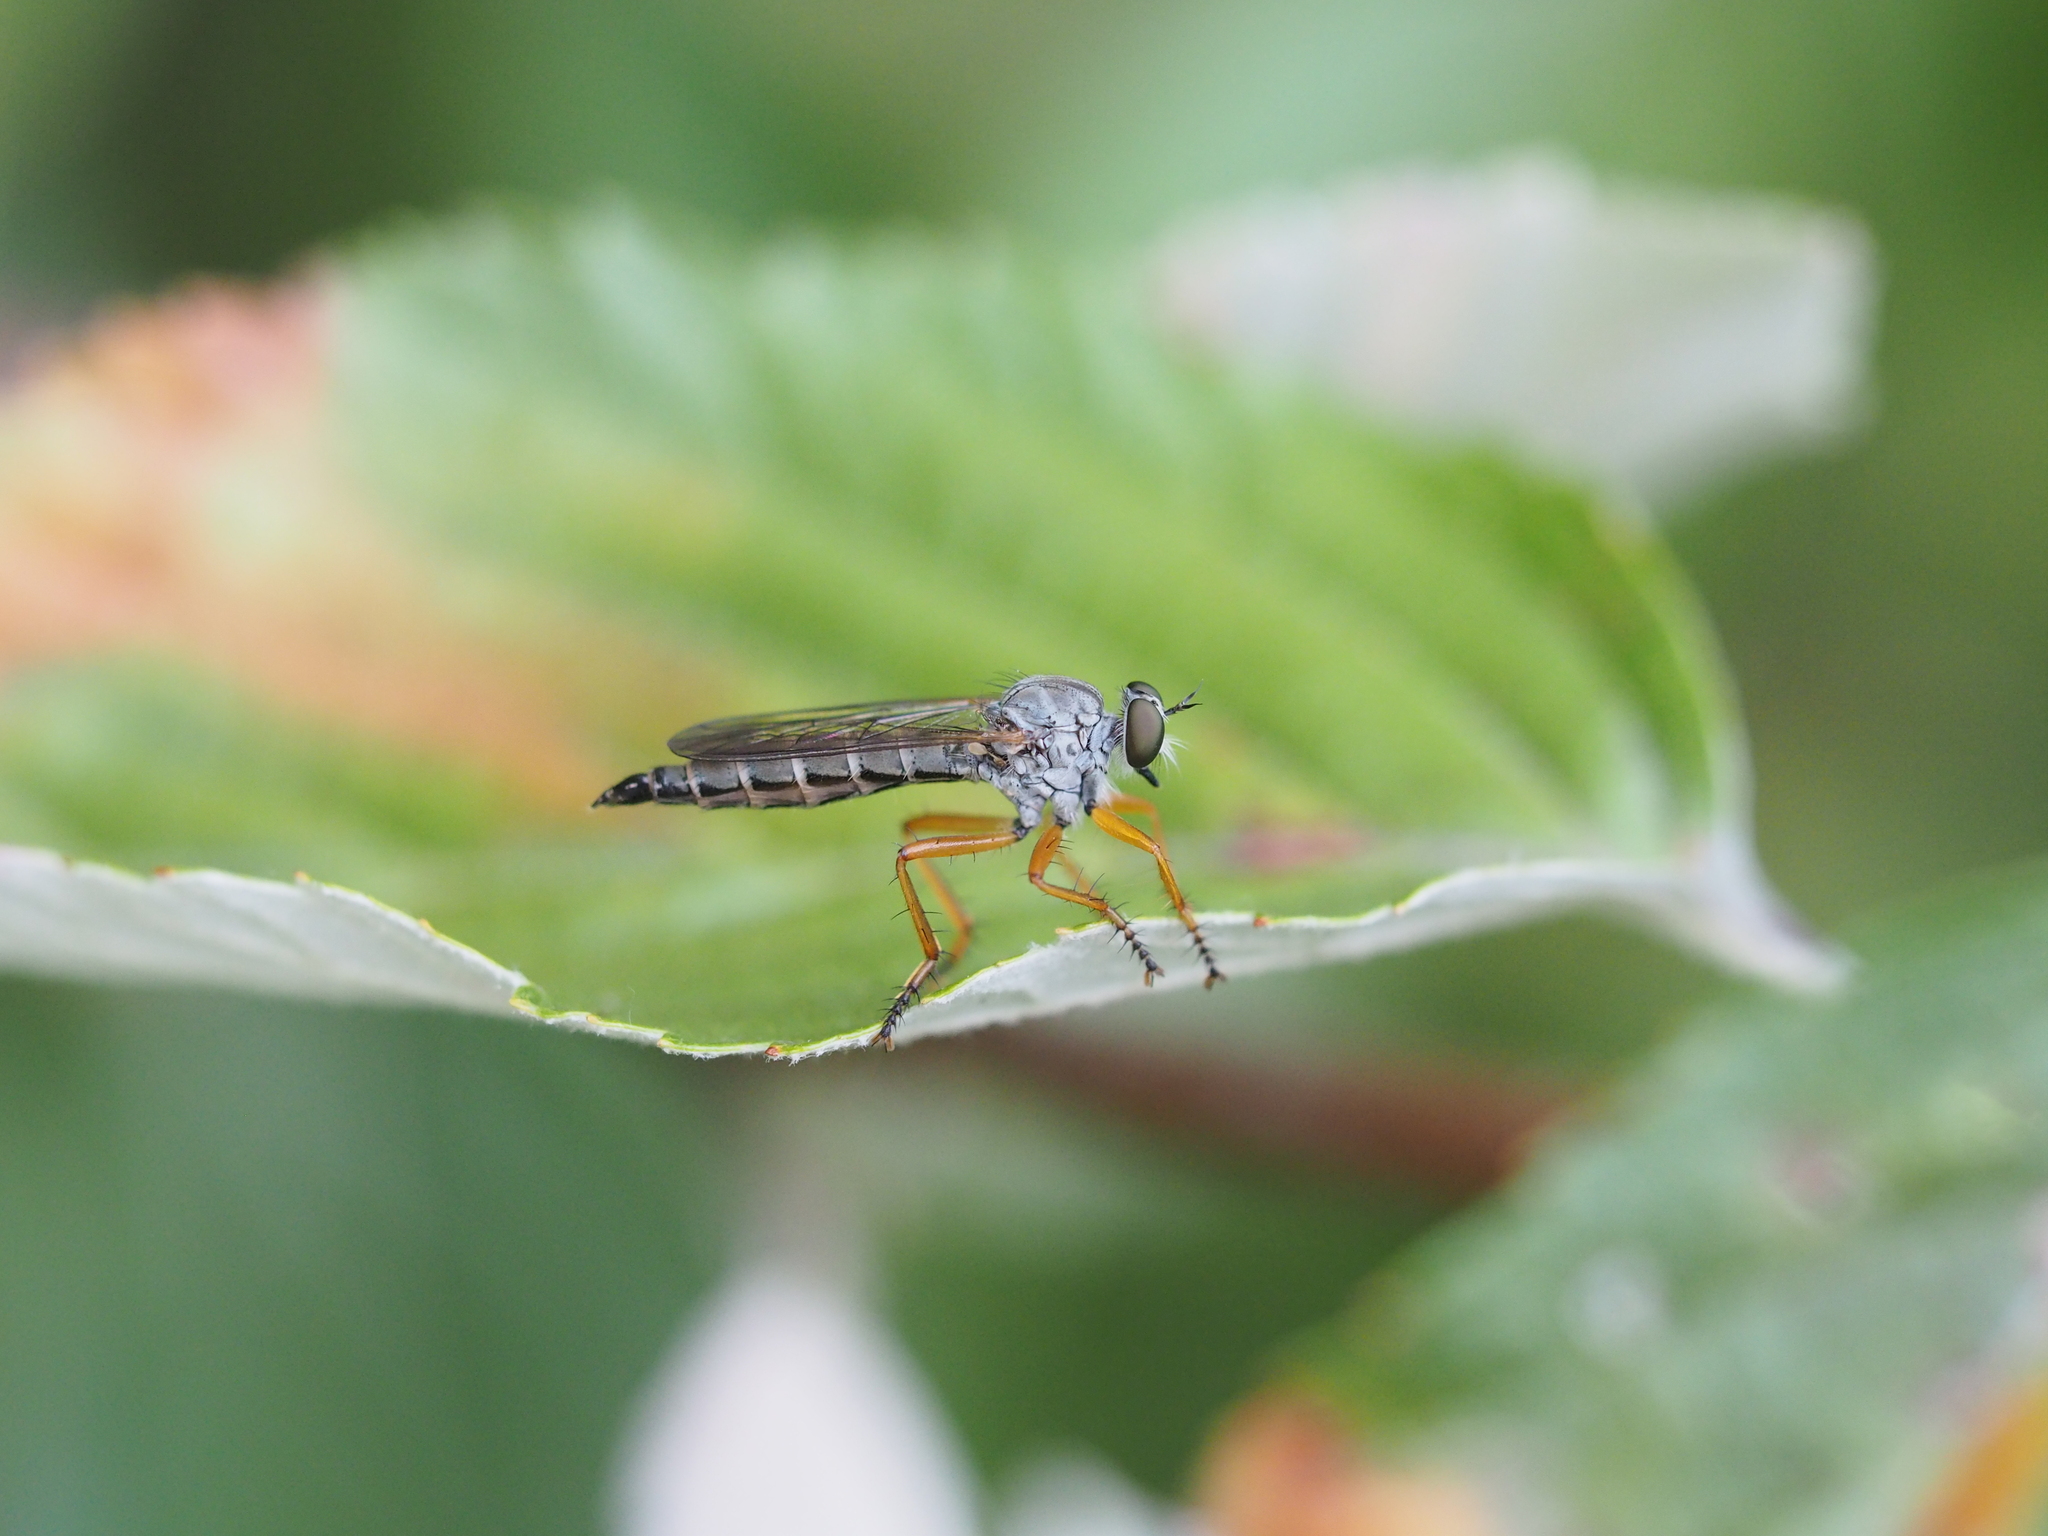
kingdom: Animalia
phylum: Arthropoda
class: Insecta
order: Diptera
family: Asilidae
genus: Neomochtherus
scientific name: Neomochtherus schineri
